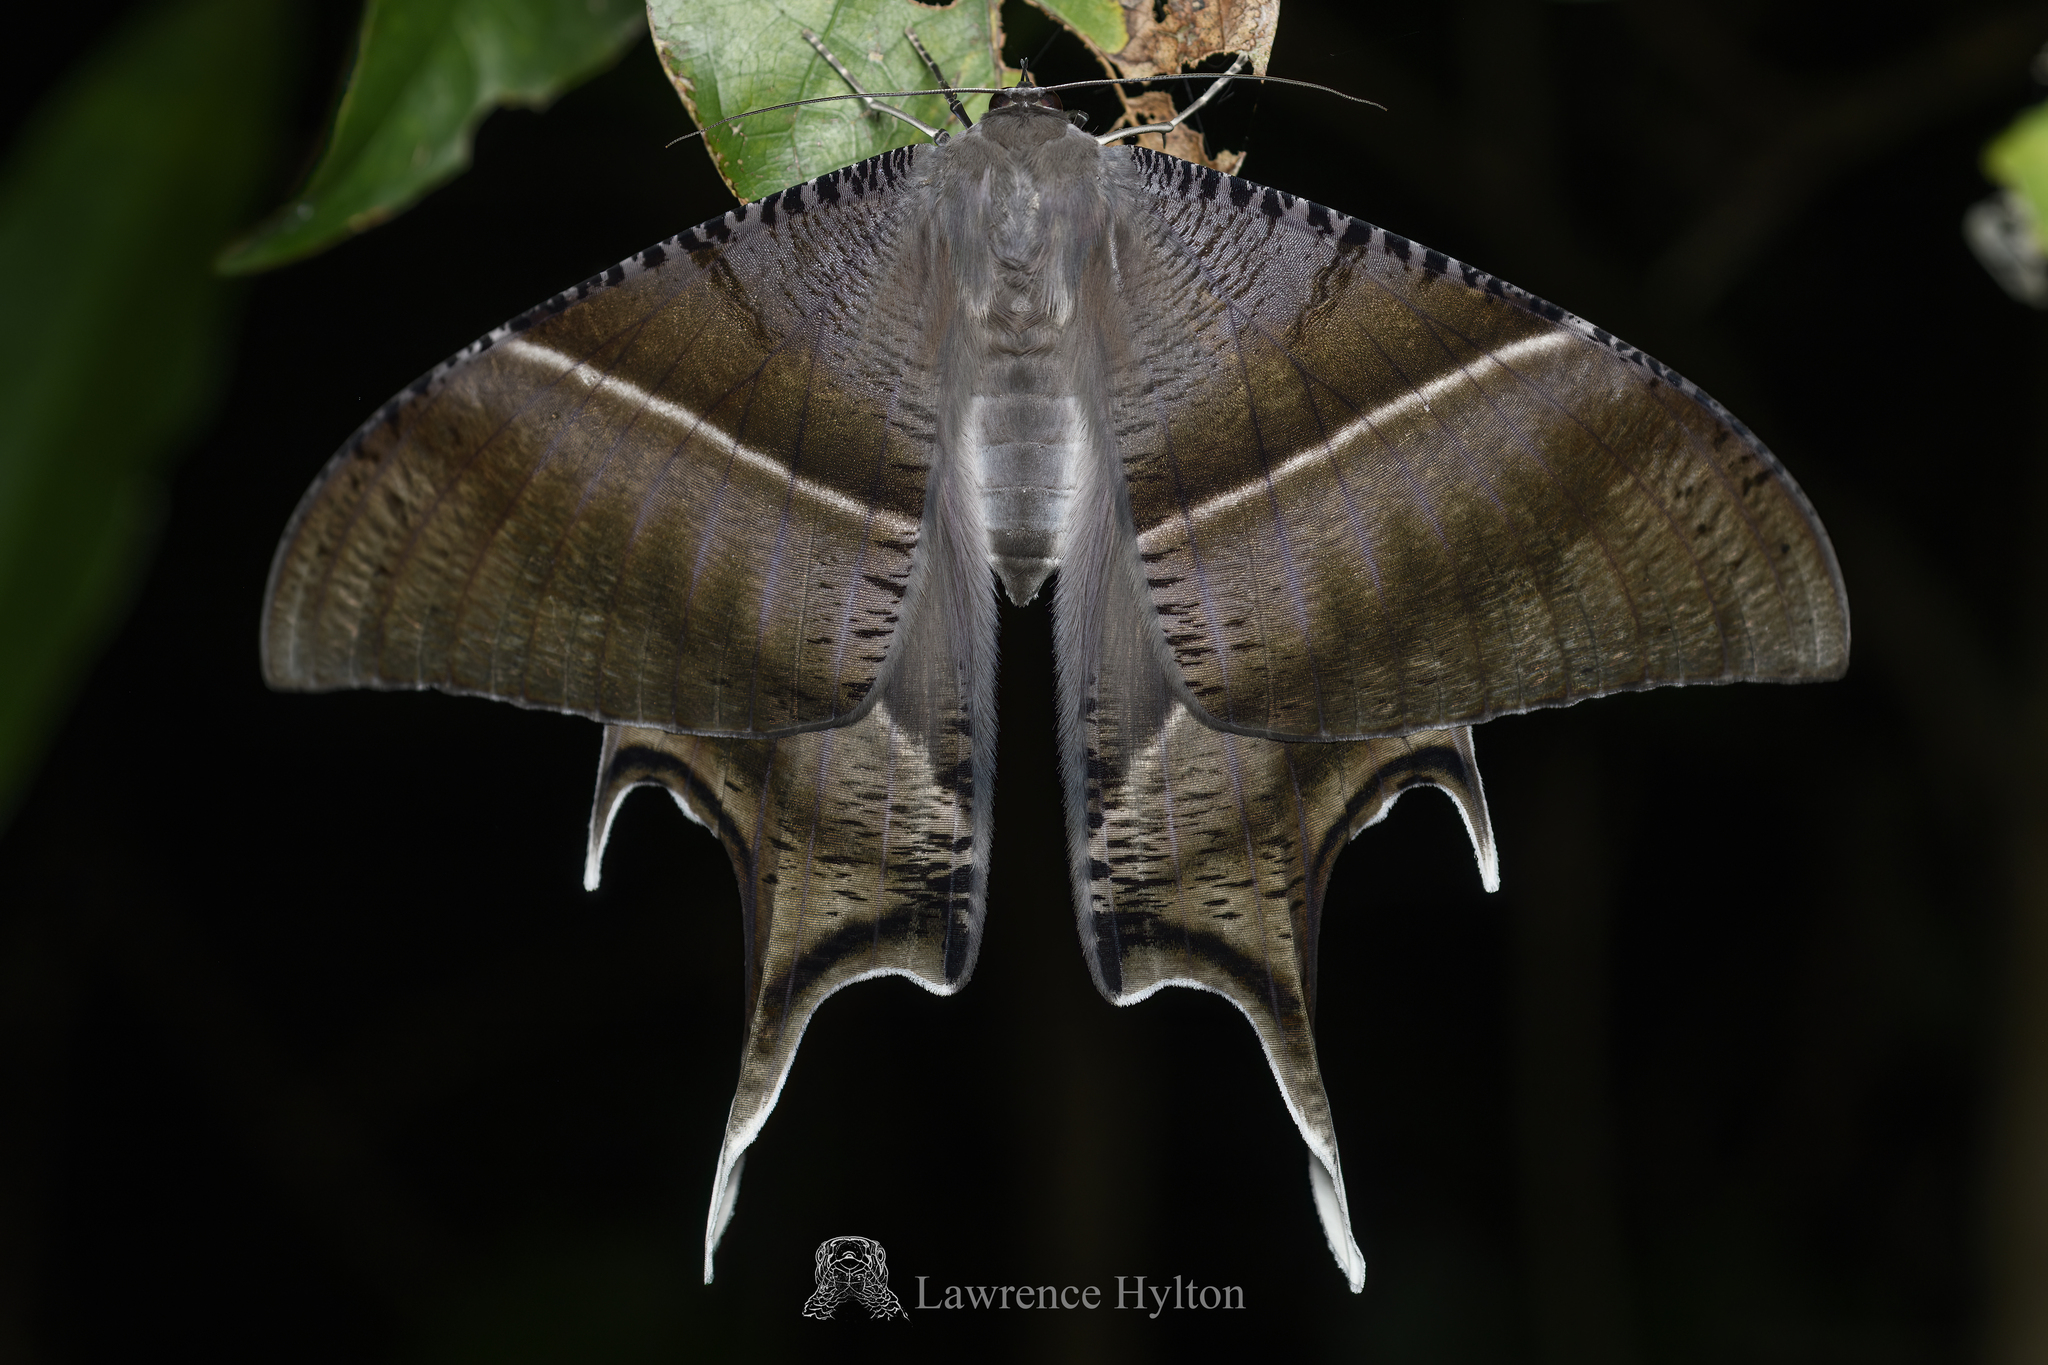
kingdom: Animalia
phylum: Arthropoda
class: Insecta
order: Lepidoptera
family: Uraniidae
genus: Lyssa
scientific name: Lyssa zampa
